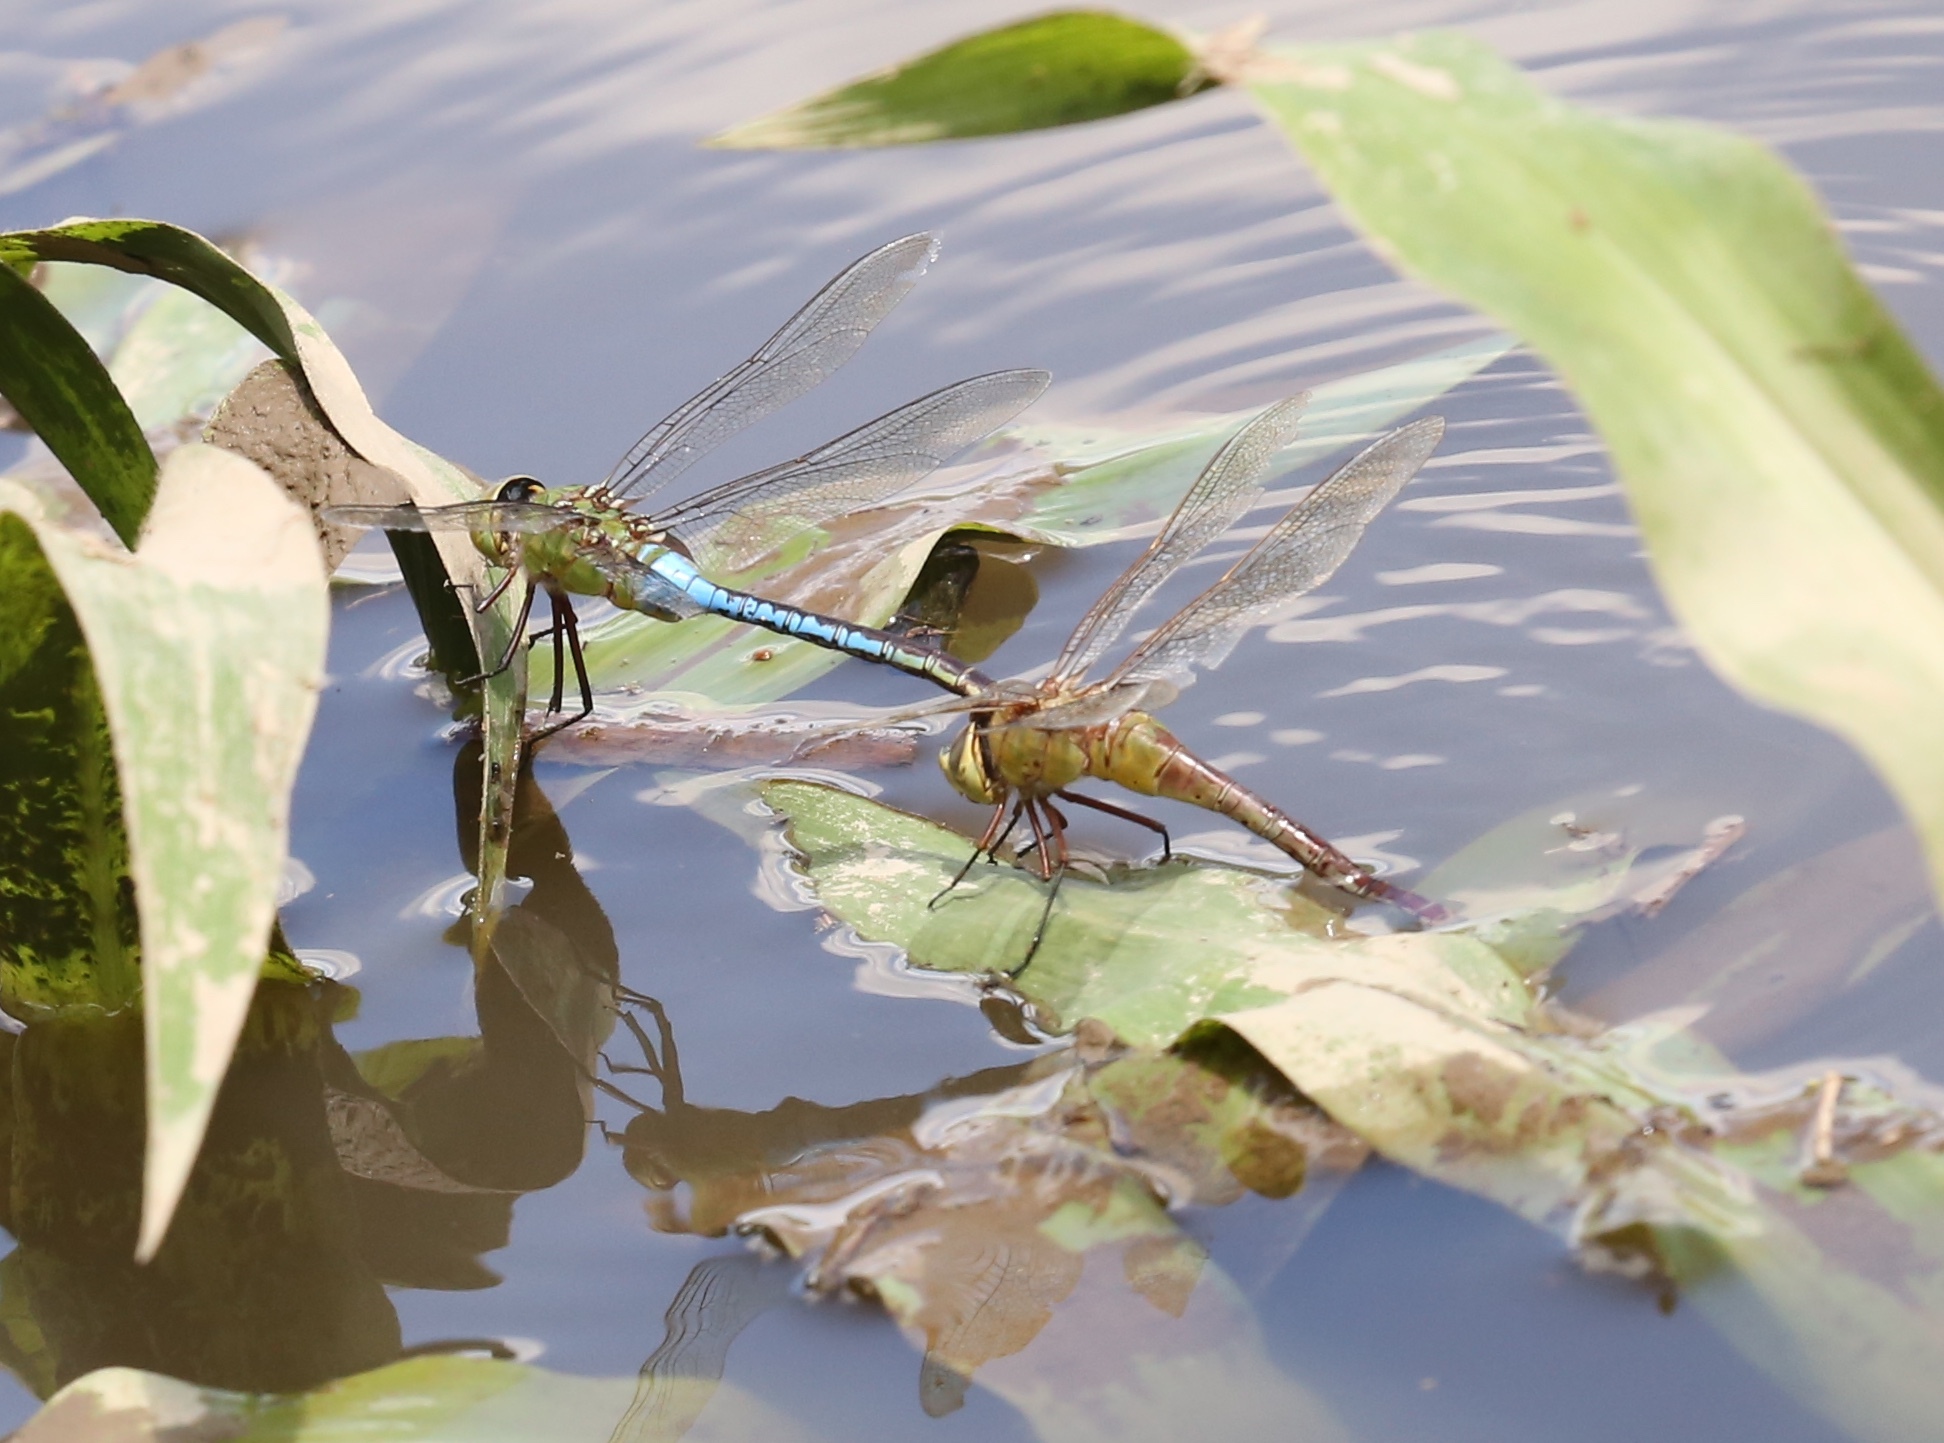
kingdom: Animalia
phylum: Arthropoda
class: Insecta
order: Odonata
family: Aeshnidae
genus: Anax
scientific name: Anax junius
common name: Common green darner
